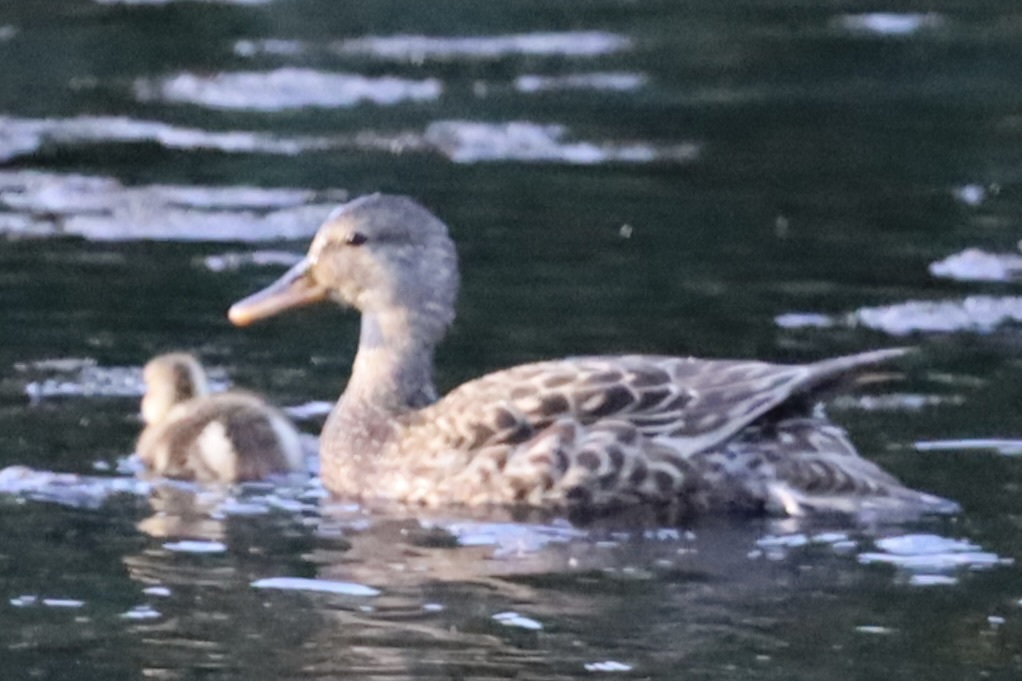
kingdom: Animalia
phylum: Chordata
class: Aves
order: Anseriformes
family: Anatidae
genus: Mareca
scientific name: Mareca strepera
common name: Gadwall
